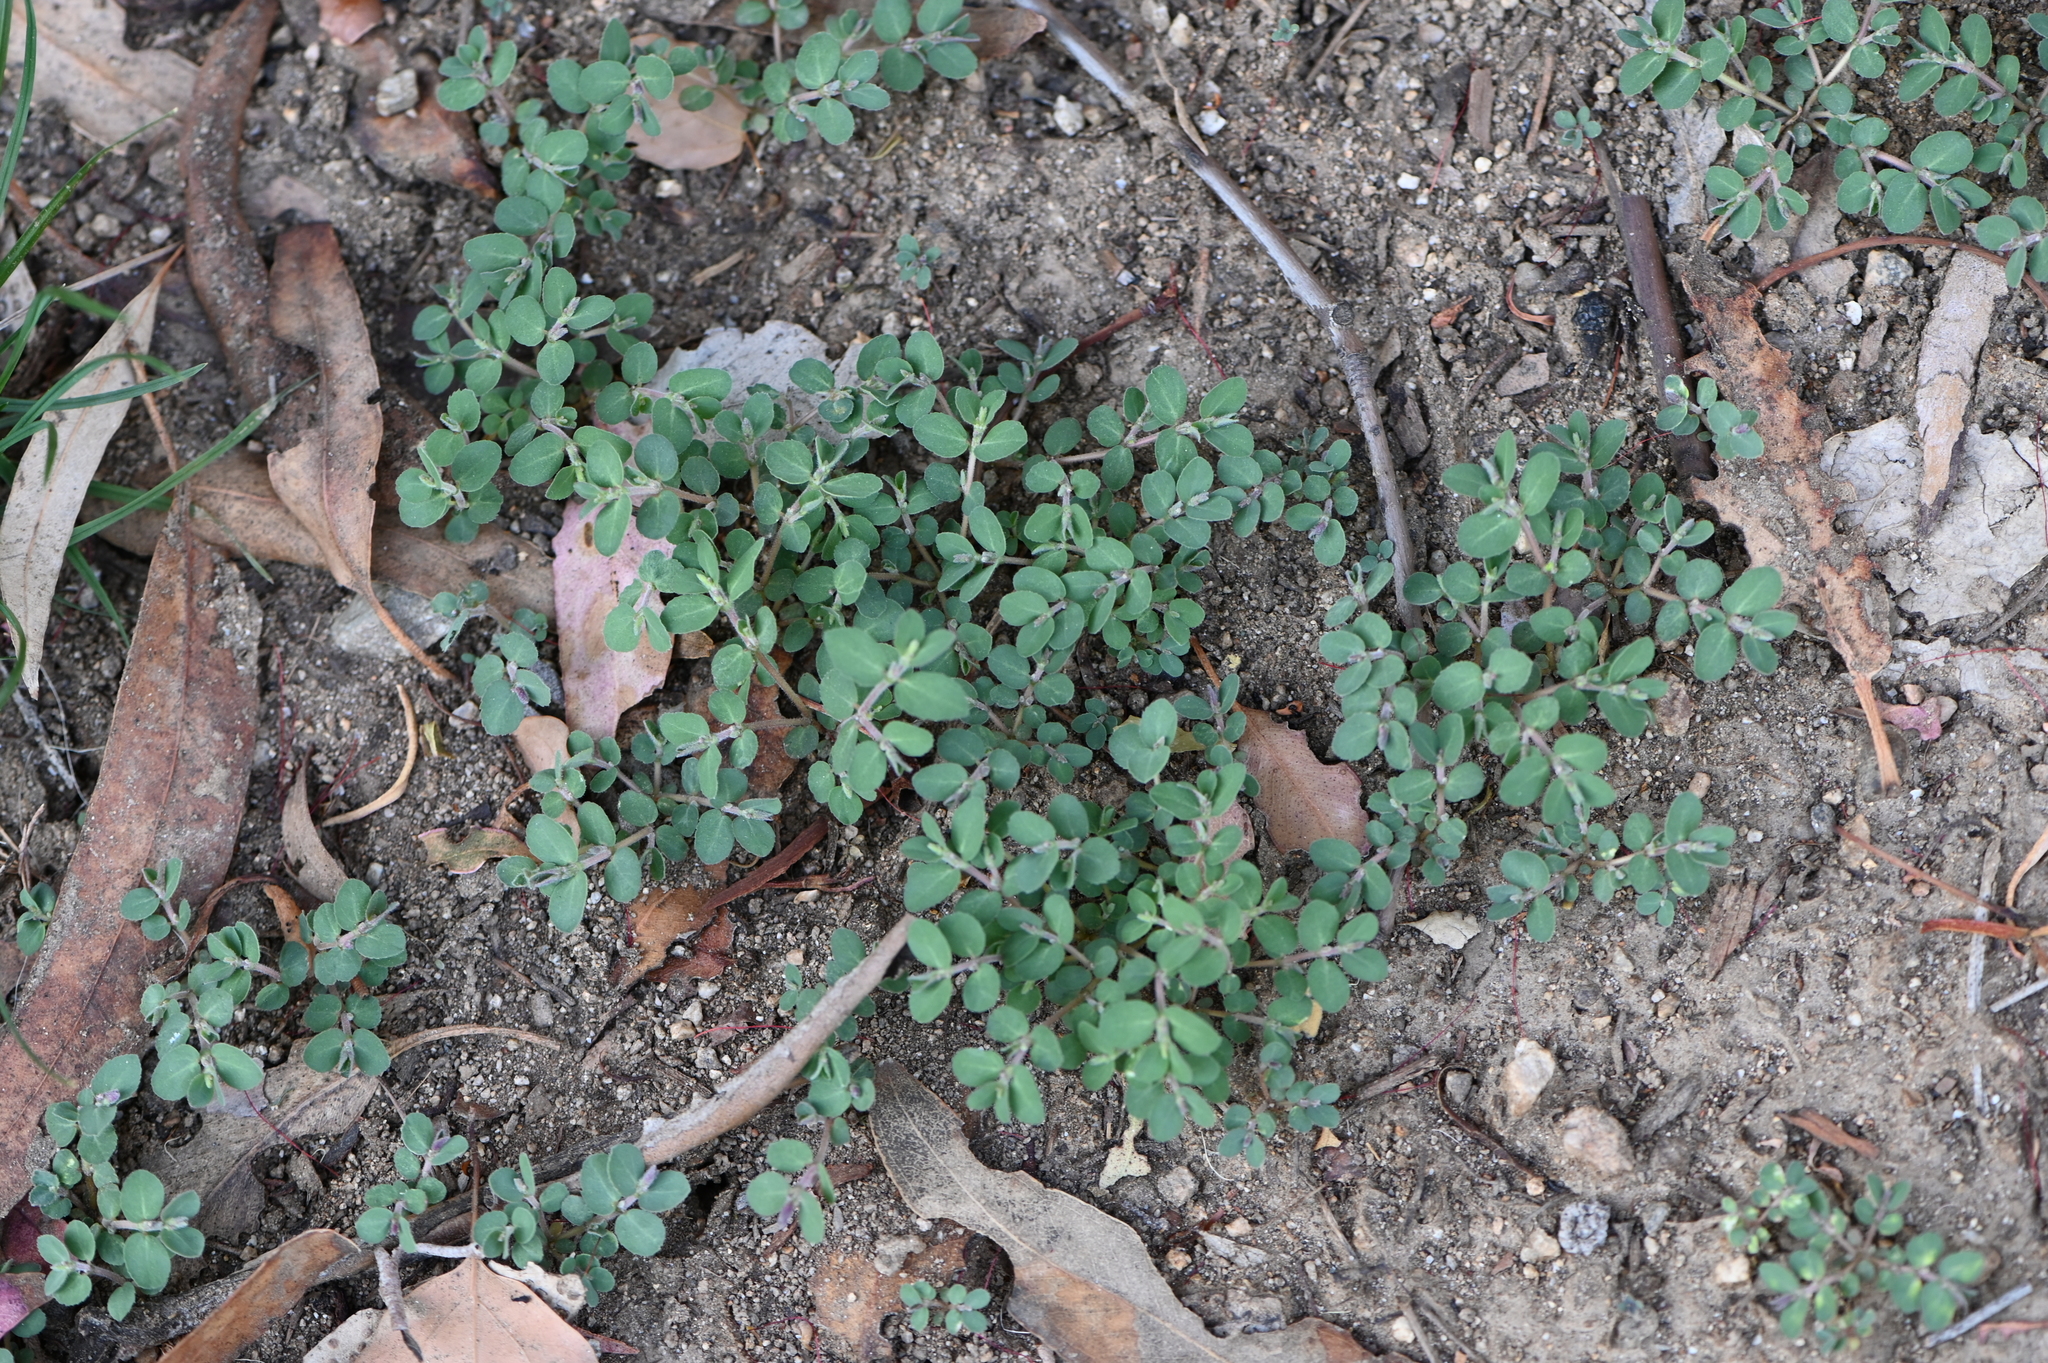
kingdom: Plantae
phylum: Tracheophyta
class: Magnoliopsida
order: Malpighiales
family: Euphorbiaceae
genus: Euphorbia
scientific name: Euphorbia prostrata
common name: Prostrate sandmat
